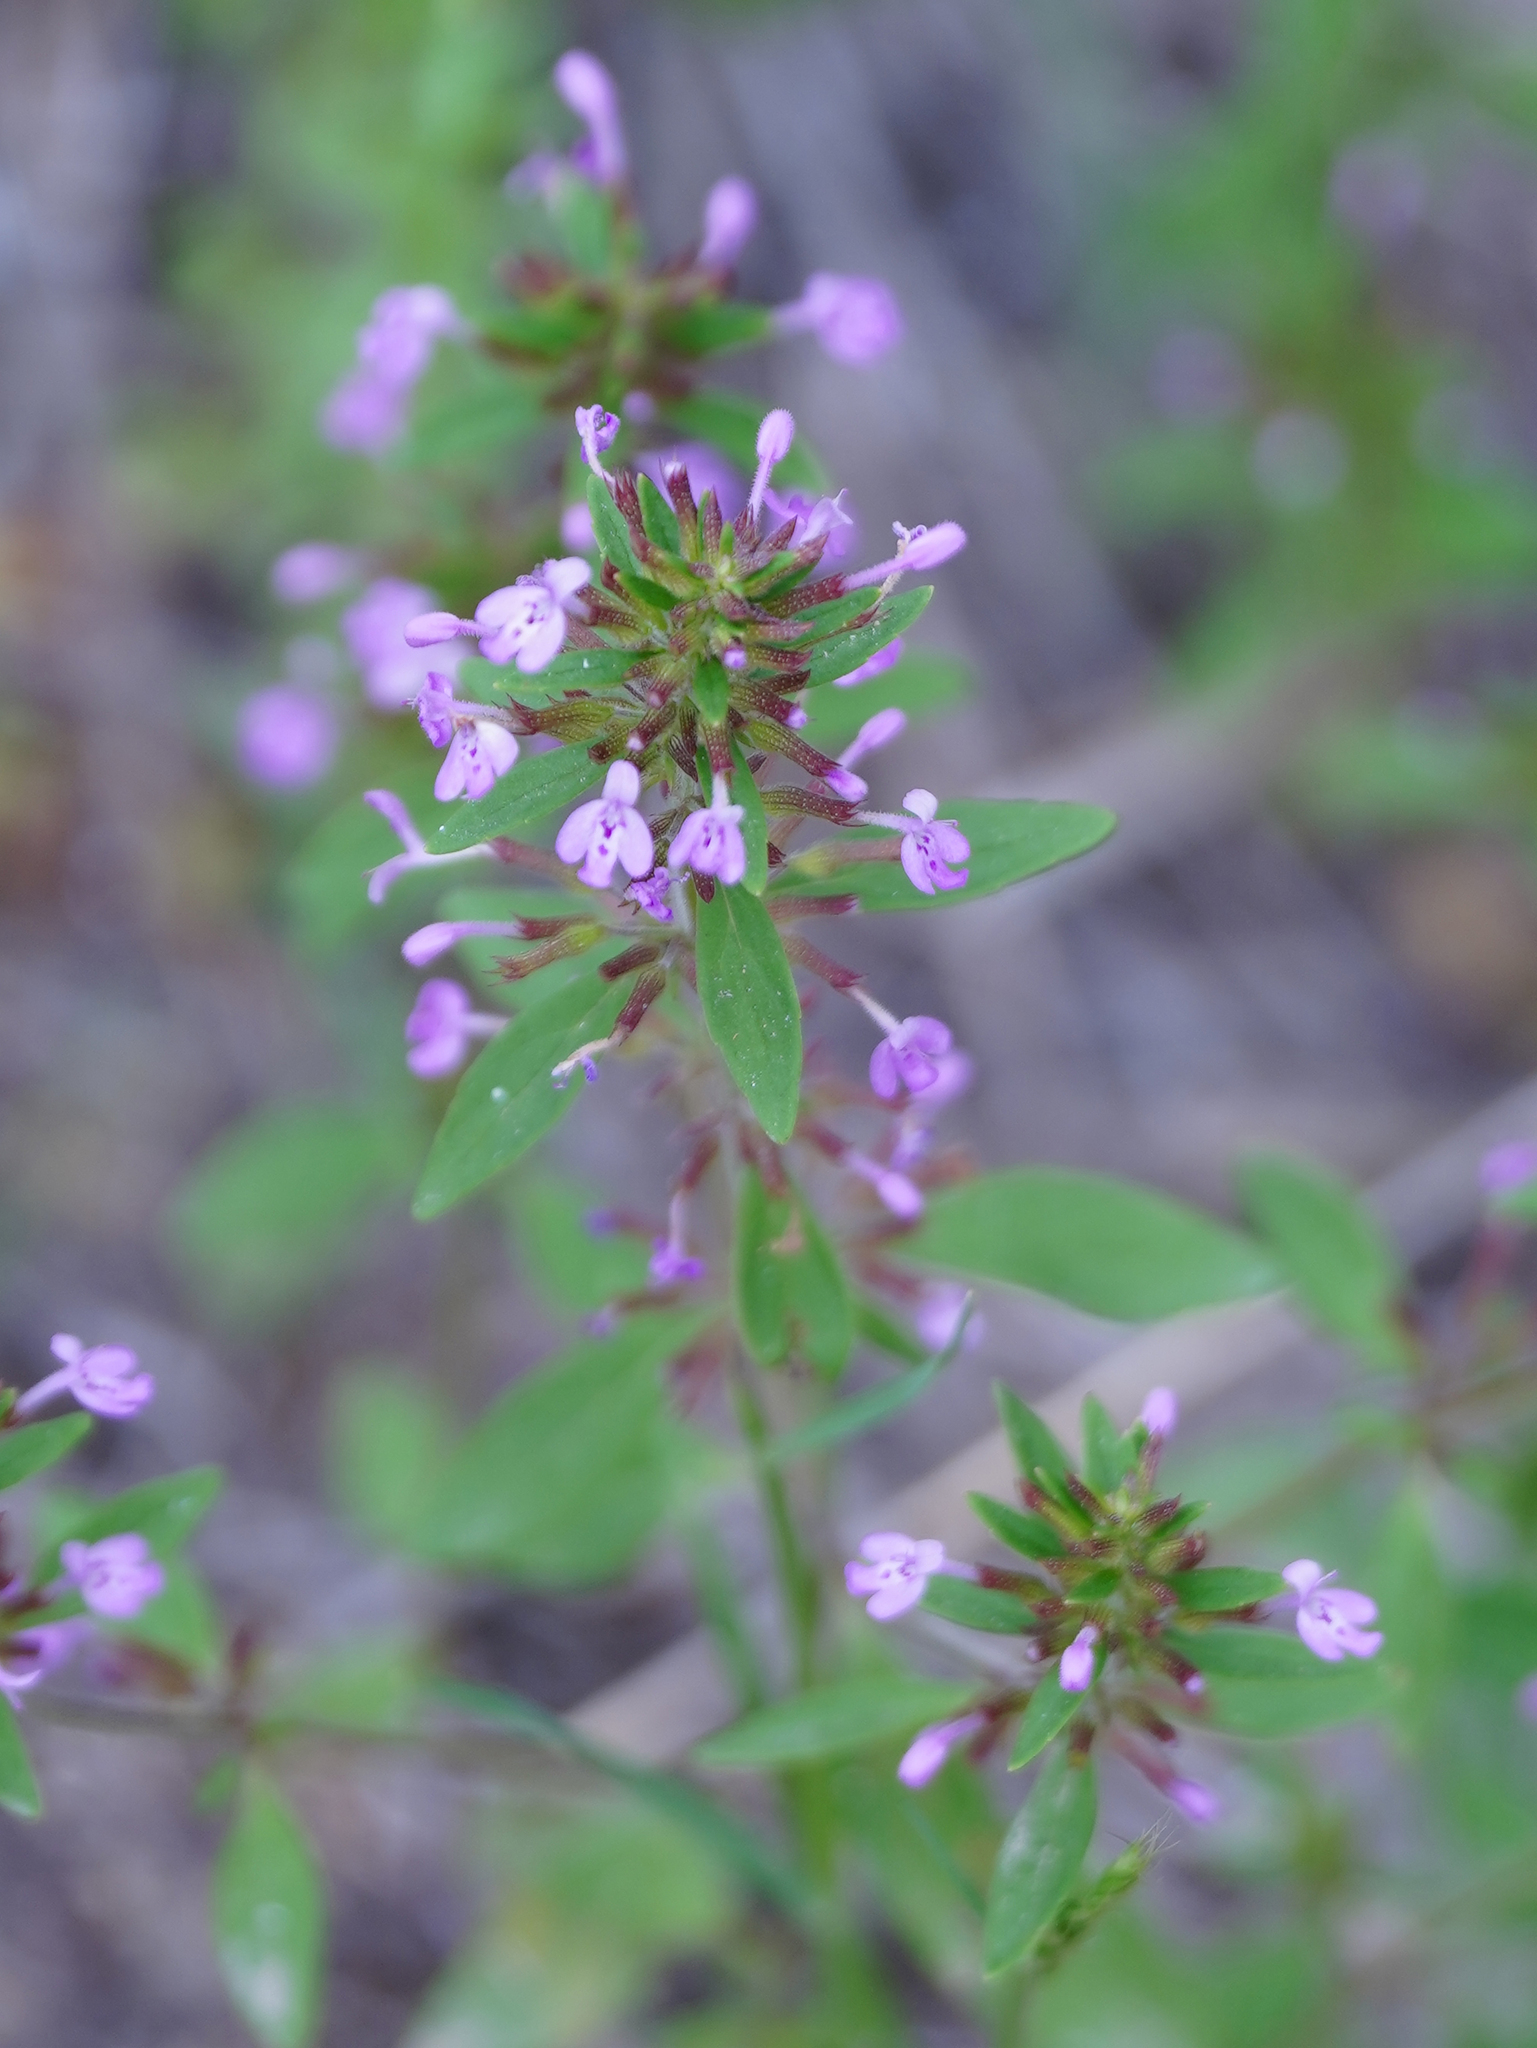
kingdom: Plantae
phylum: Tracheophyta
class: Magnoliopsida
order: Lamiales
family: Lamiaceae
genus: Hedeoma
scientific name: Hedeoma acinoides
